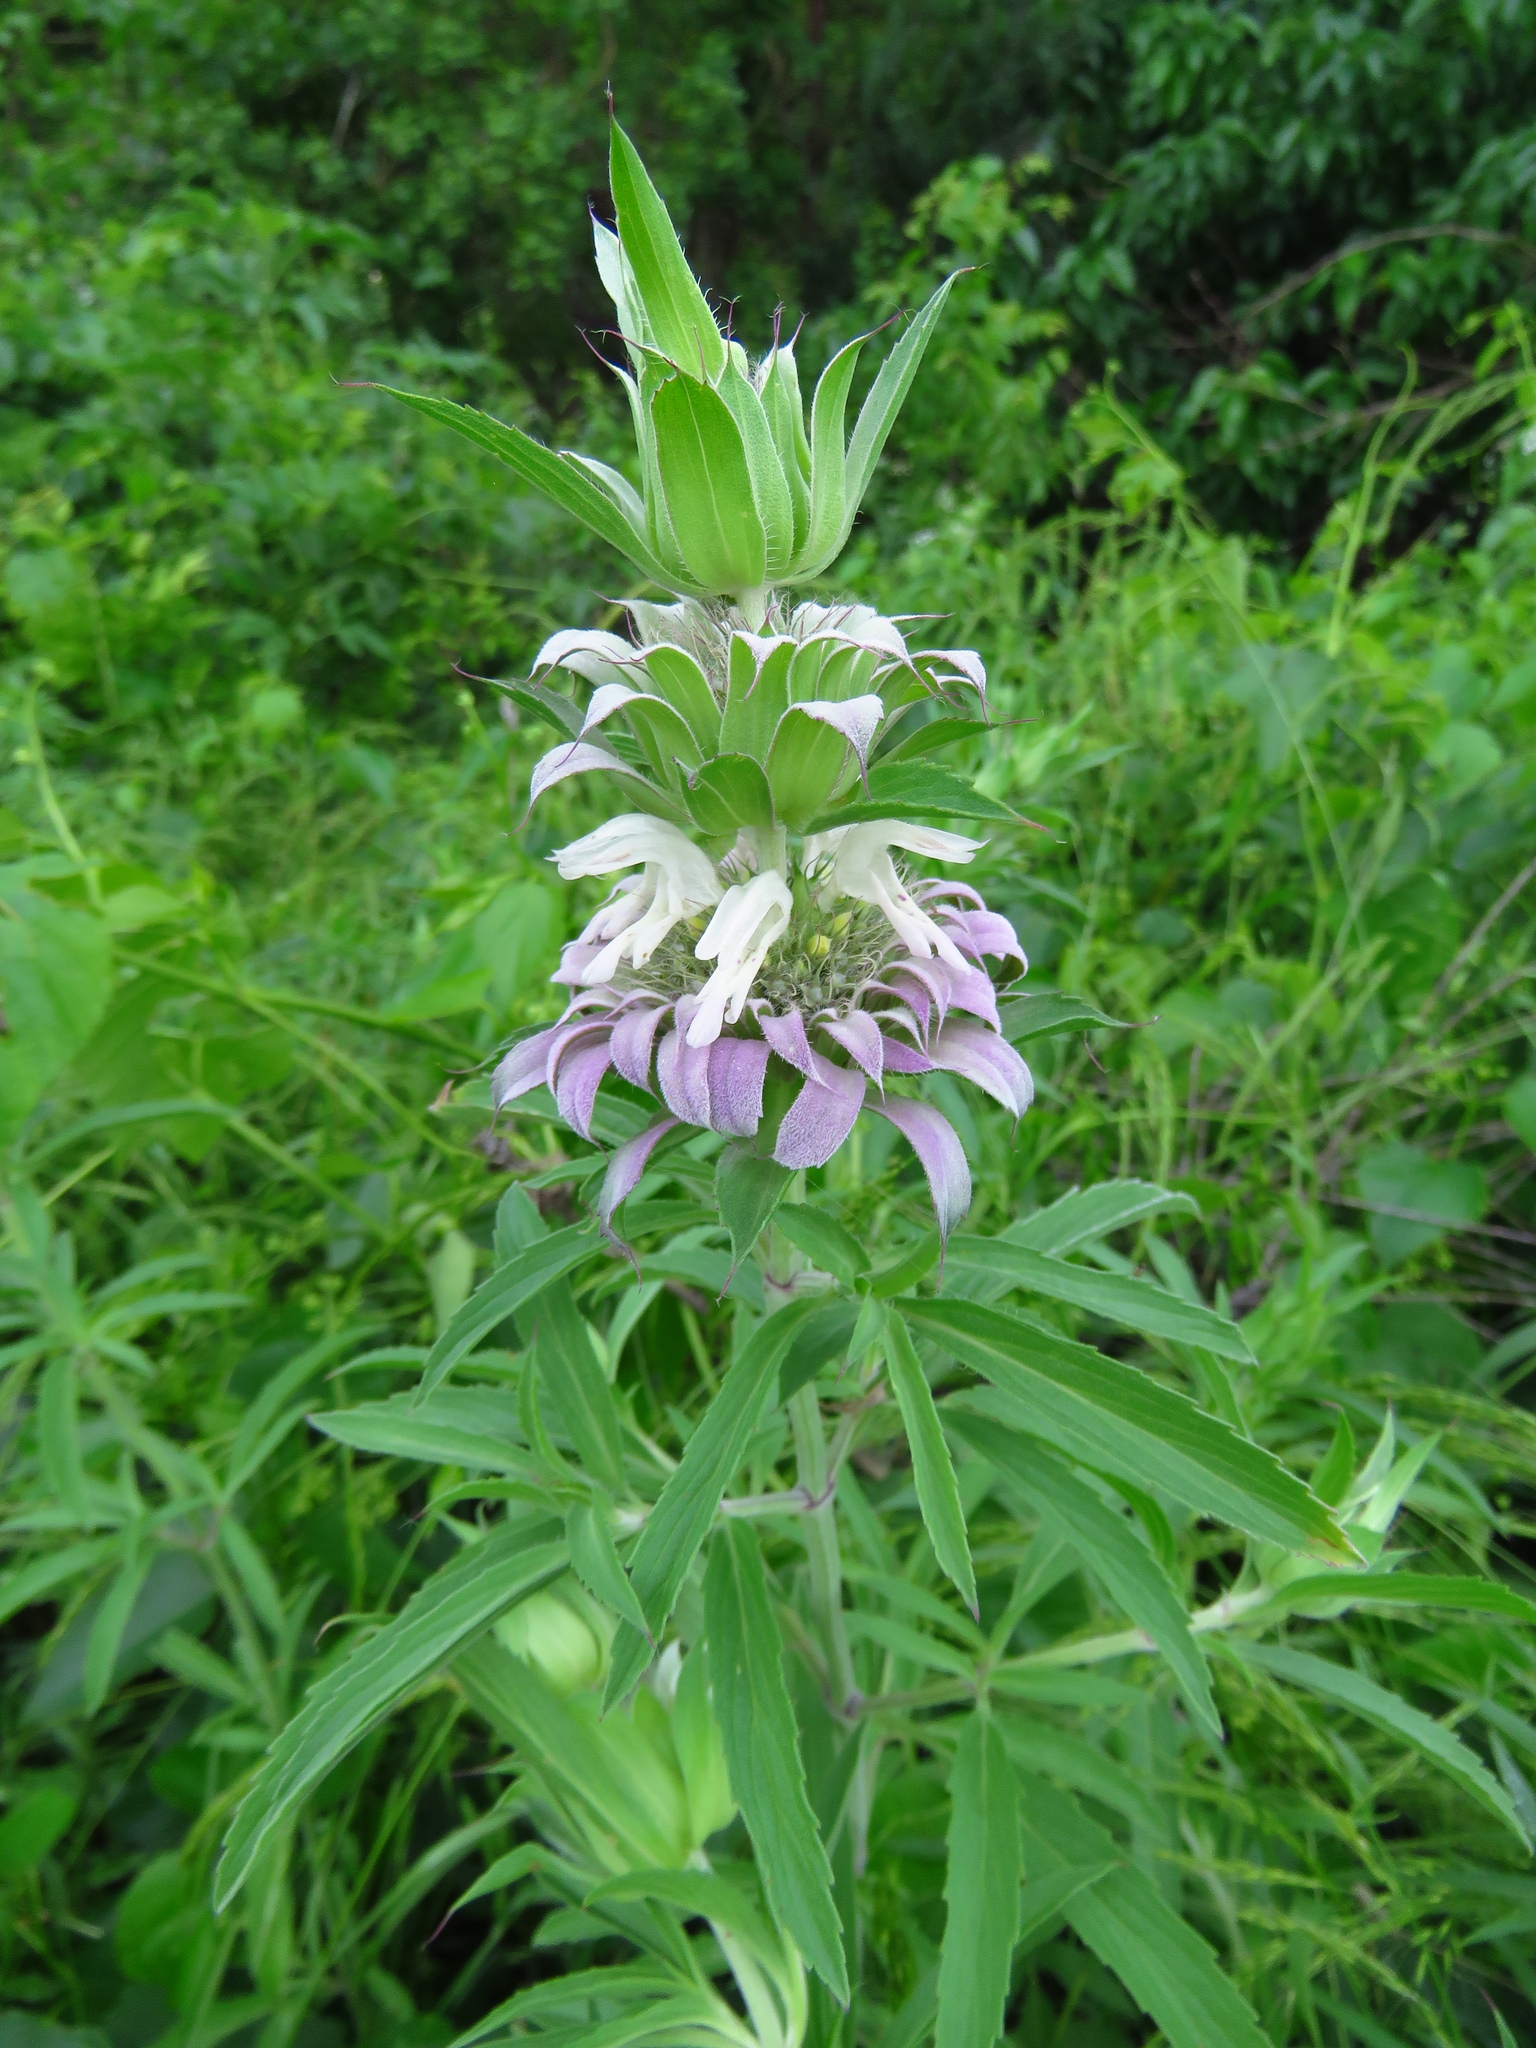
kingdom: Plantae
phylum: Tracheophyta
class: Magnoliopsida
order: Lamiales
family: Lamiaceae
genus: Monarda
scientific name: Monarda citriodora
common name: Lemon beebalm
